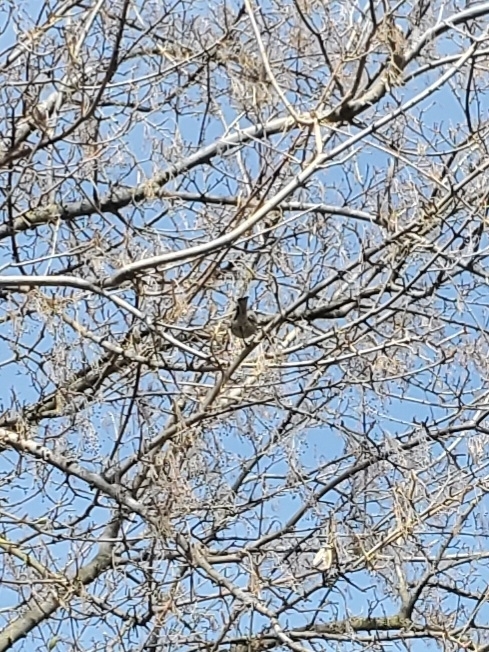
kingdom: Animalia
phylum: Chordata
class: Aves
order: Passeriformes
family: Aegithalidae
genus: Psaltriparus
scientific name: Psaltriparus minimus
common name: American bushtit
